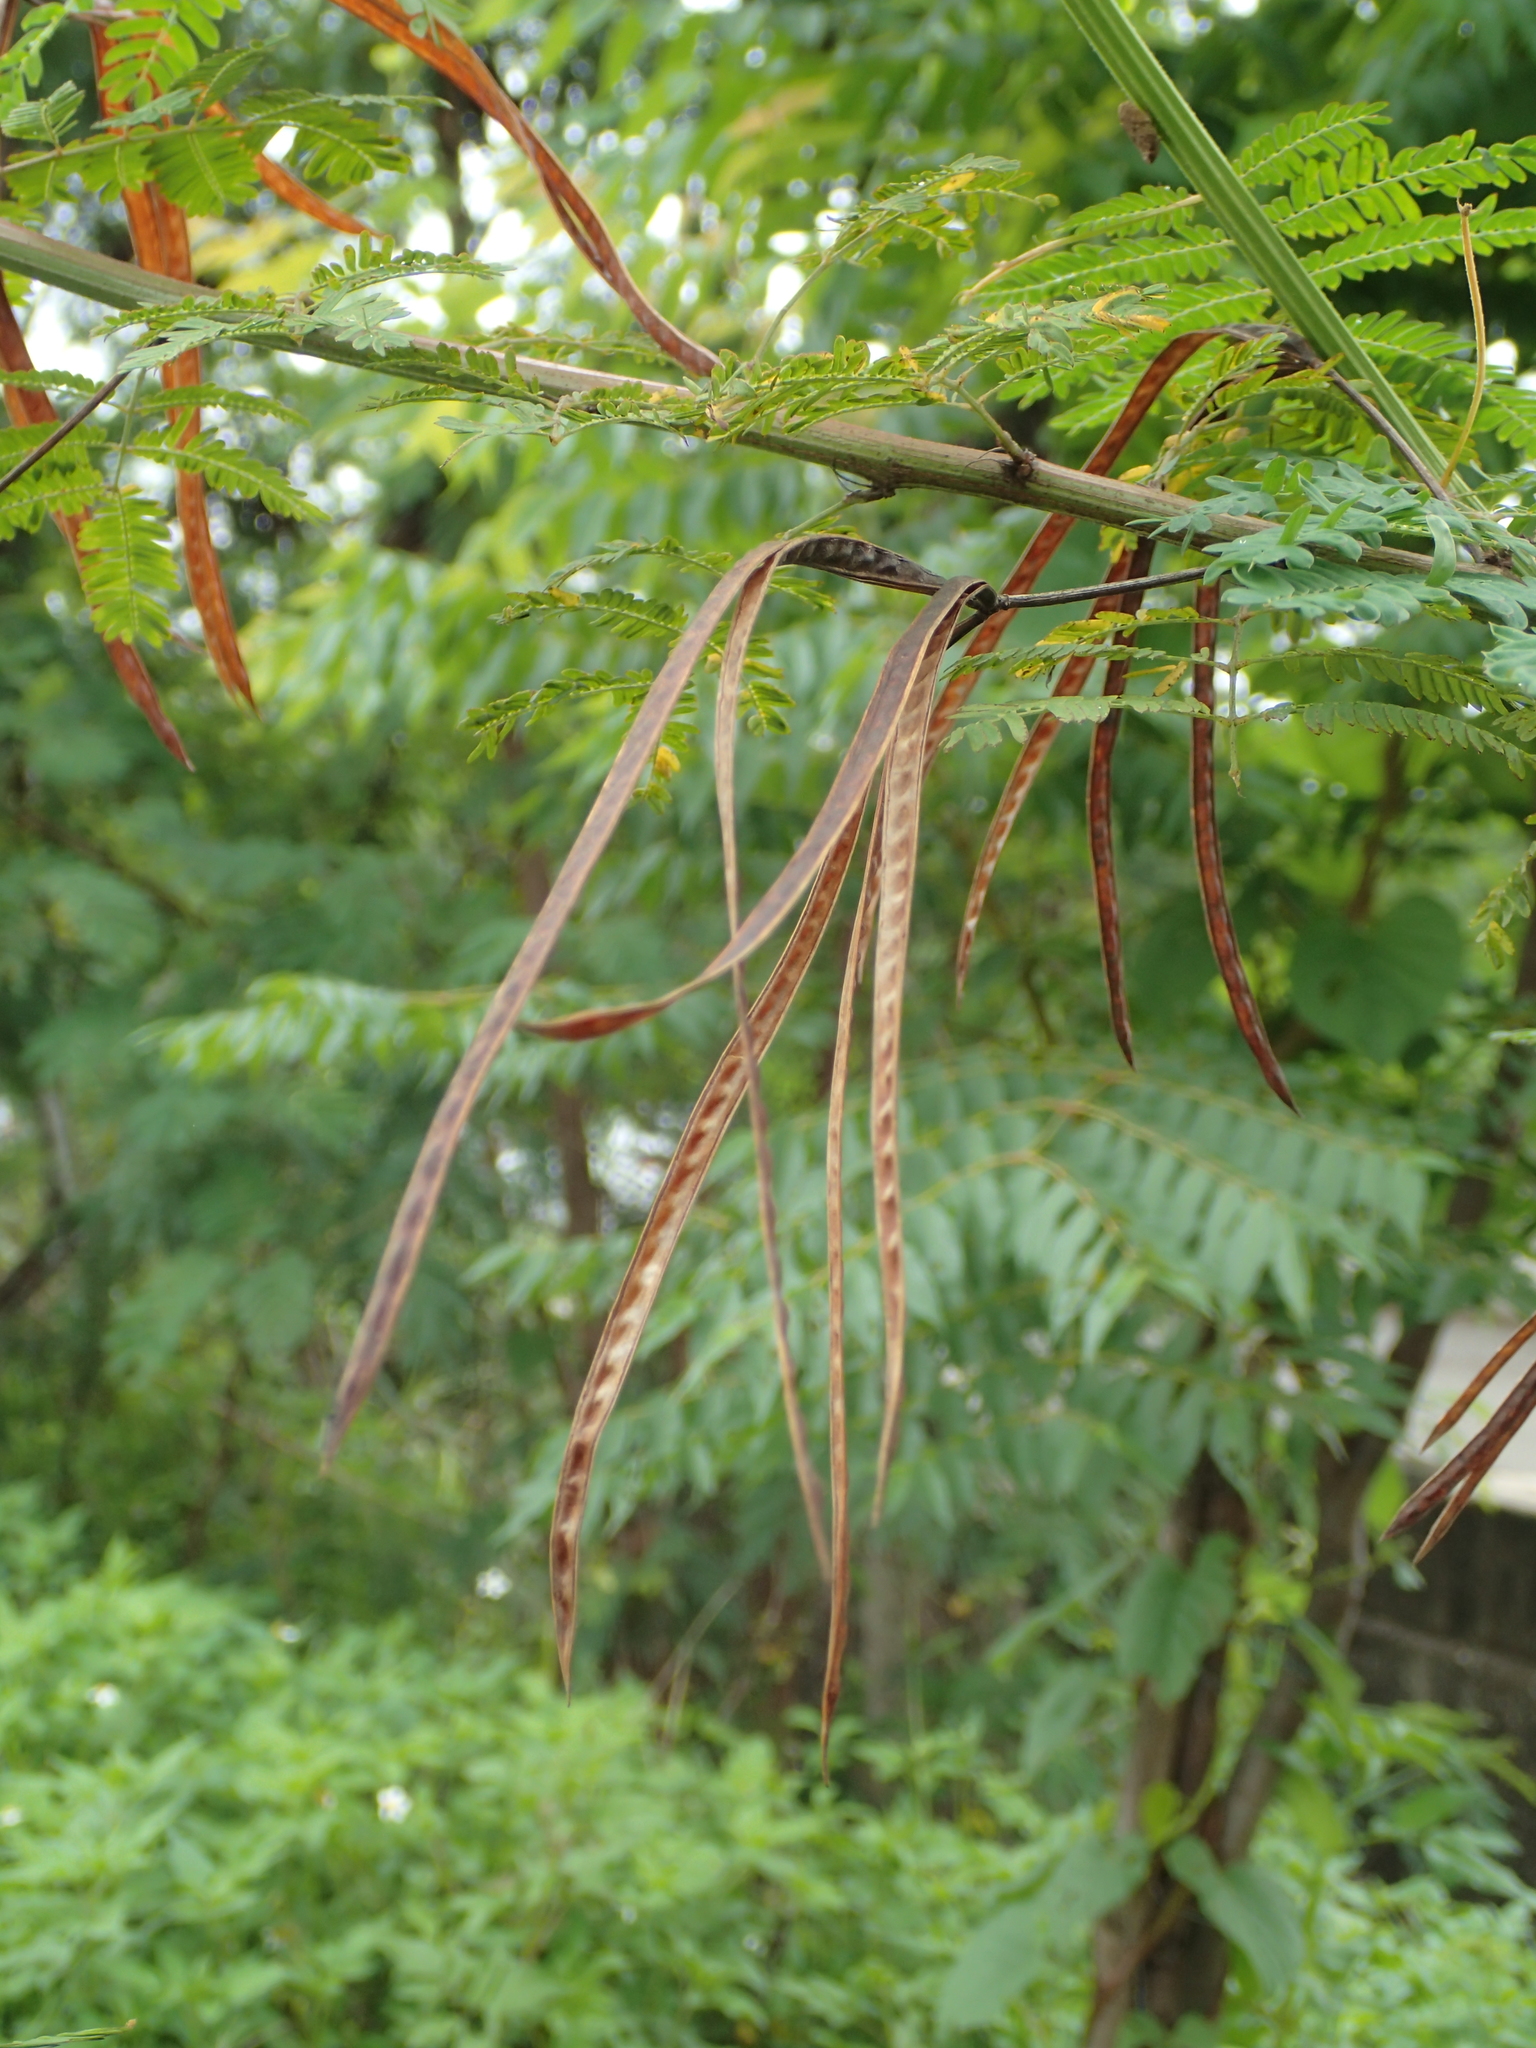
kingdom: Plantae
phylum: Tracheophyta
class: Magnoliopsida
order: Fabales
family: Fabaceae
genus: Desmanthus
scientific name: Desmanthus virgatus
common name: Wild tantan
